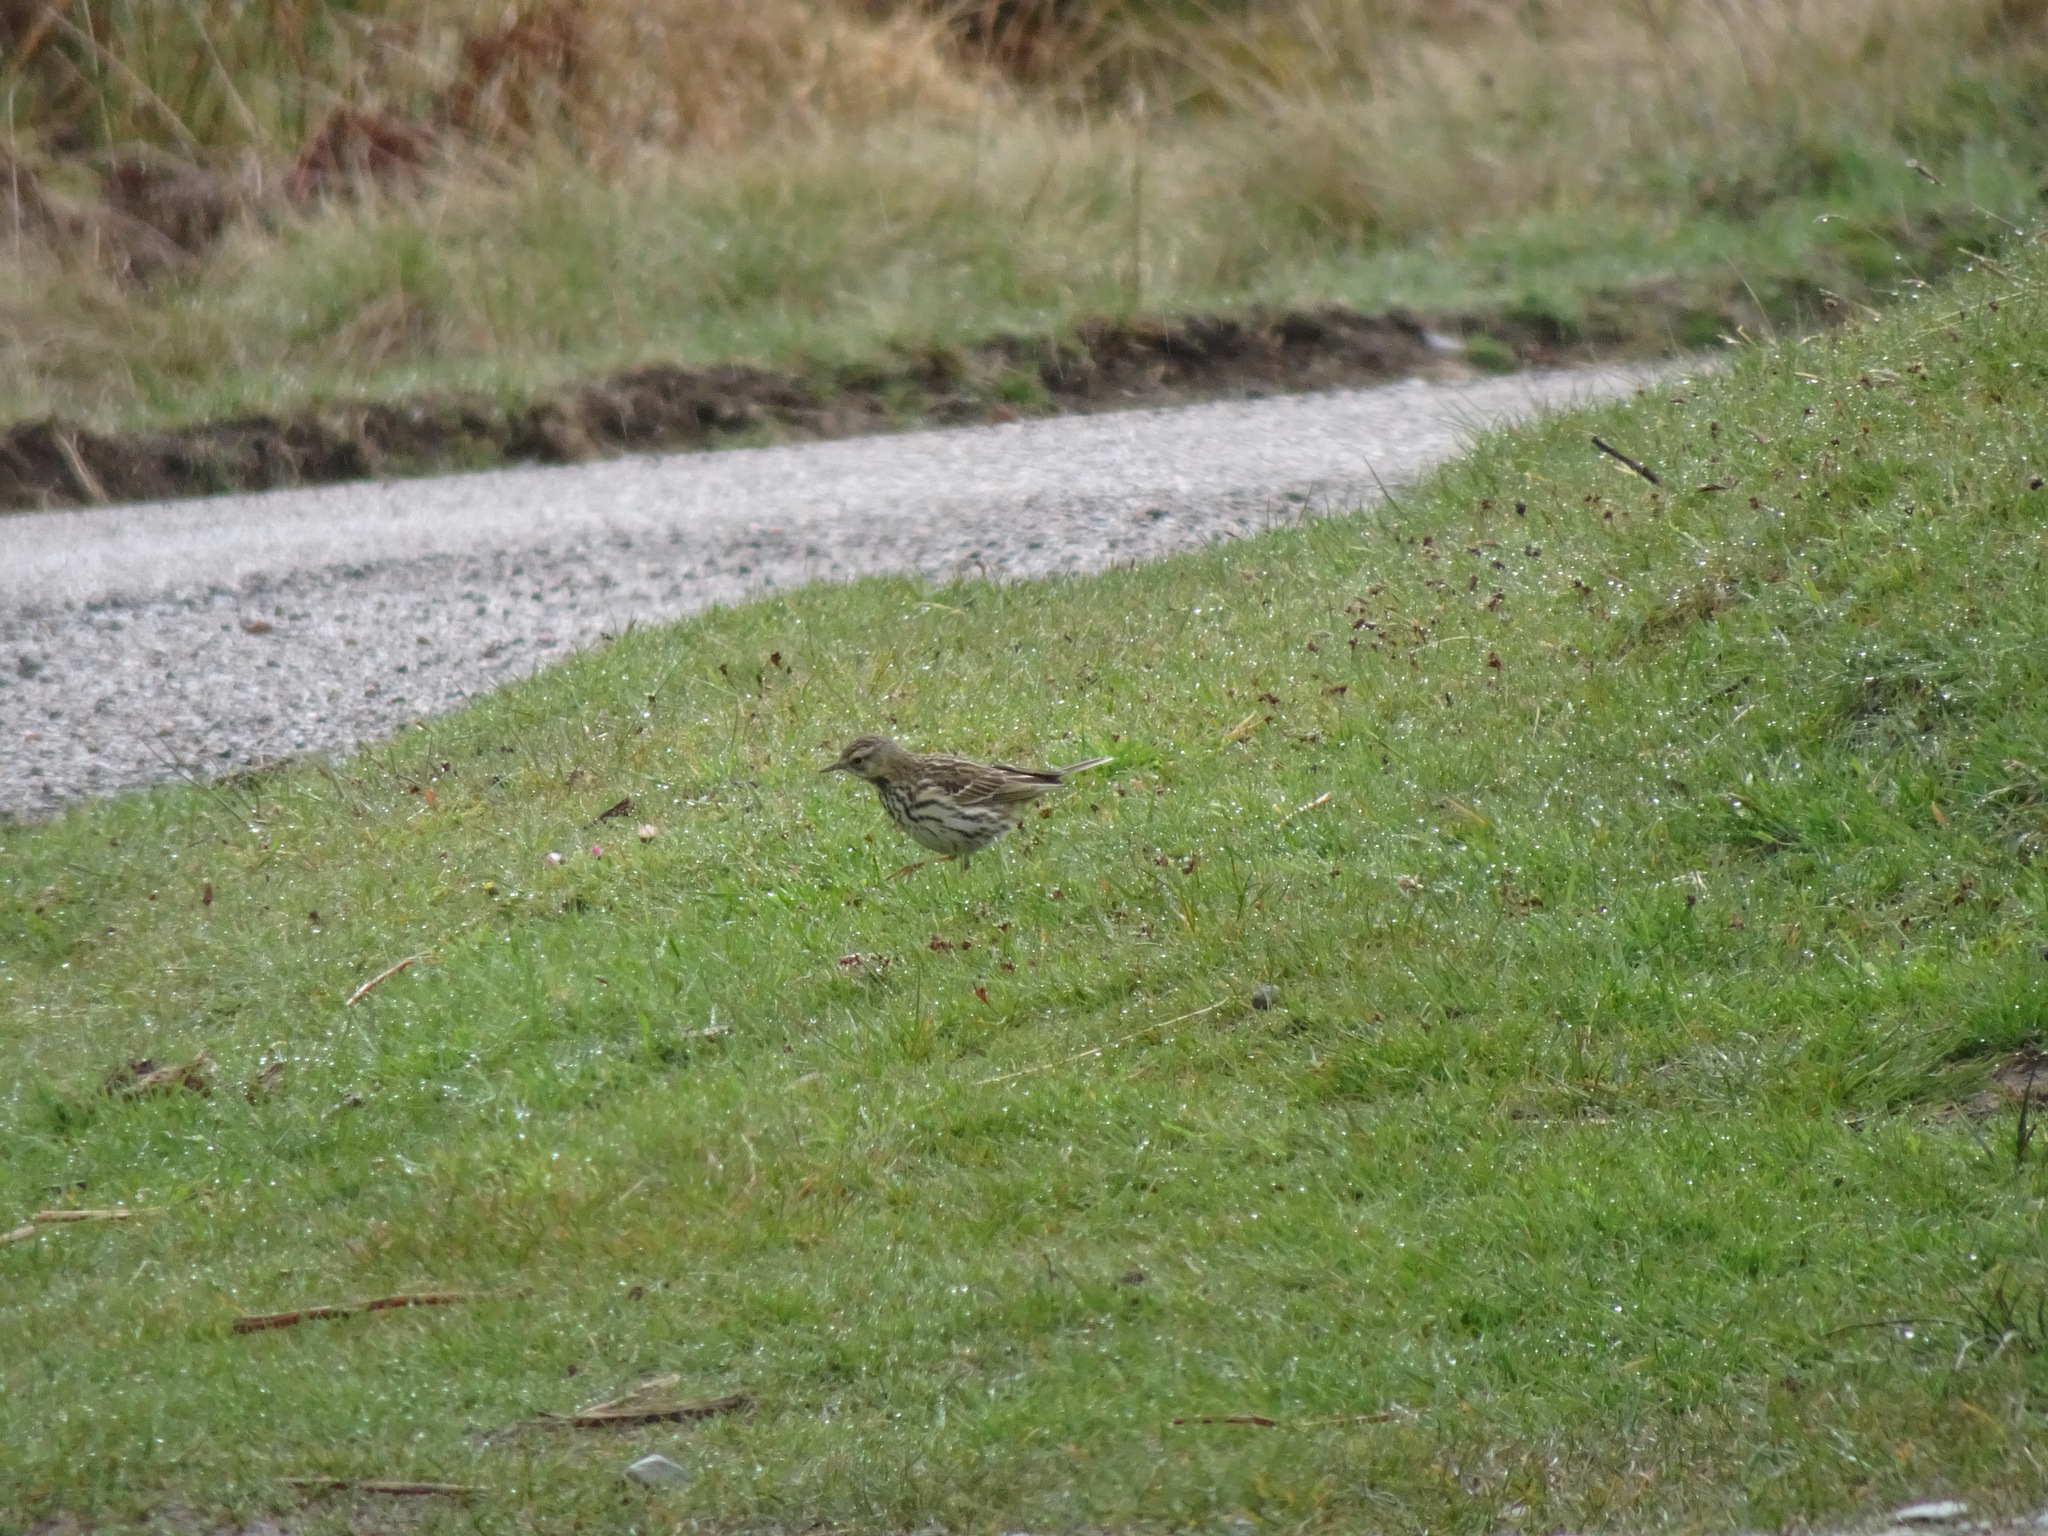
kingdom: Animalia
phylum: Chordata
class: Aves
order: Passeriformes
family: Motacillidae
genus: Anthus
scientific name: Anthus pratensis
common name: Meadow pipit
